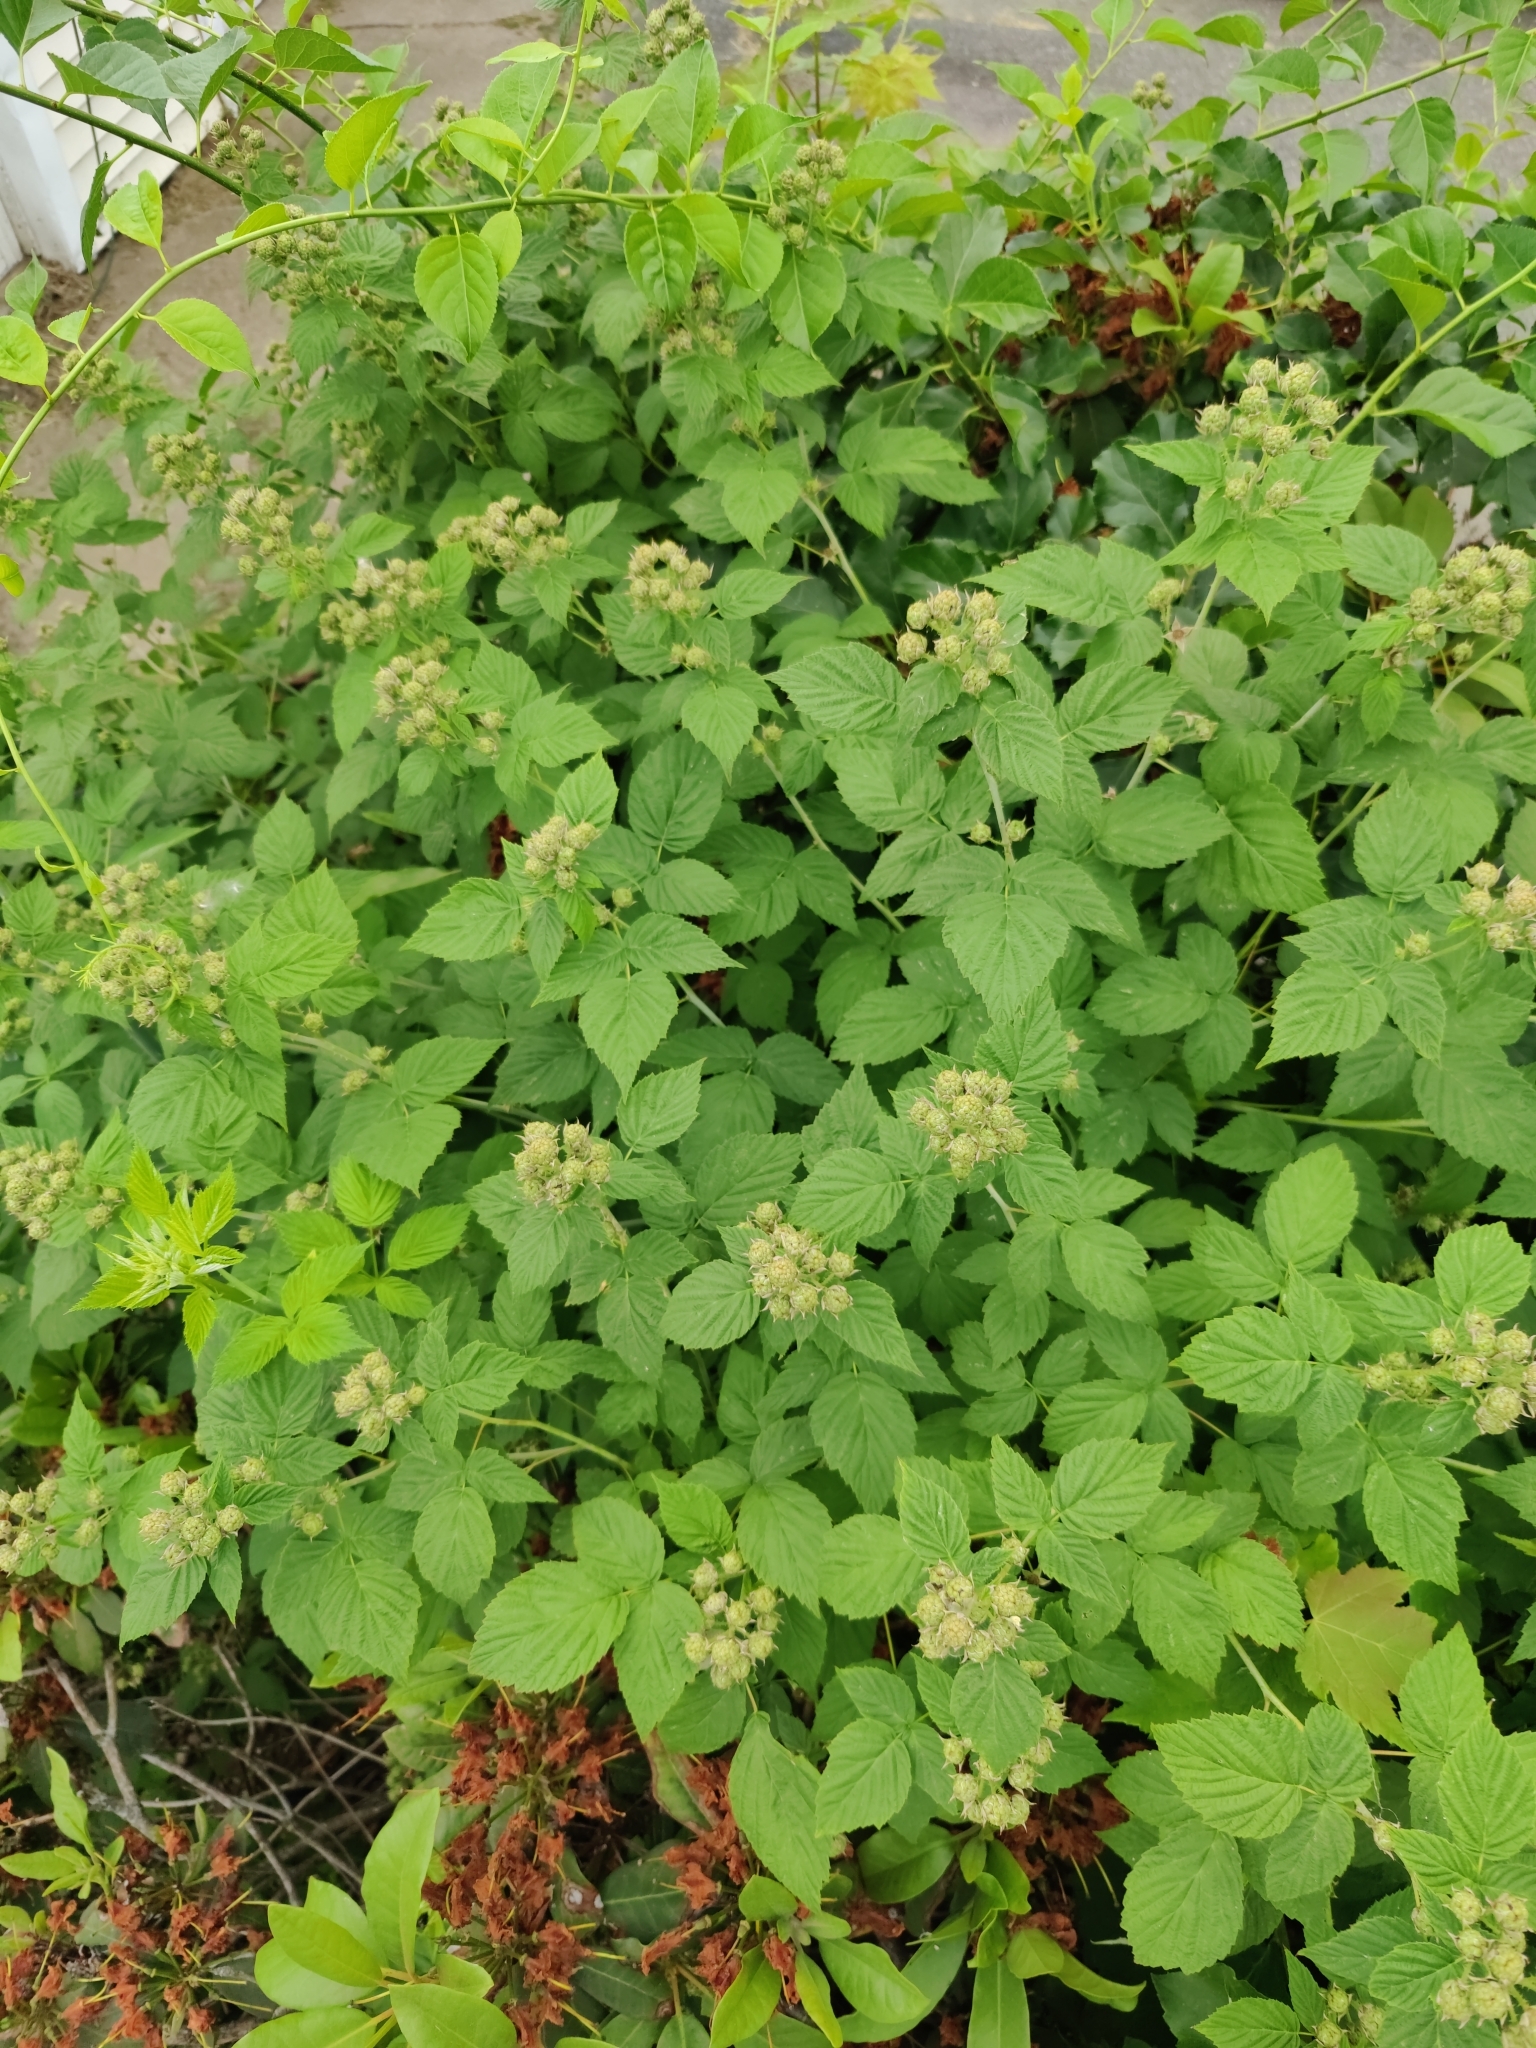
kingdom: Plantae
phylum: Tracheophyta
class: Magnoliopsida
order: Rosales
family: Rosaceae
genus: Rubus
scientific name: Rubus occidentalis
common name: Black raspberry
